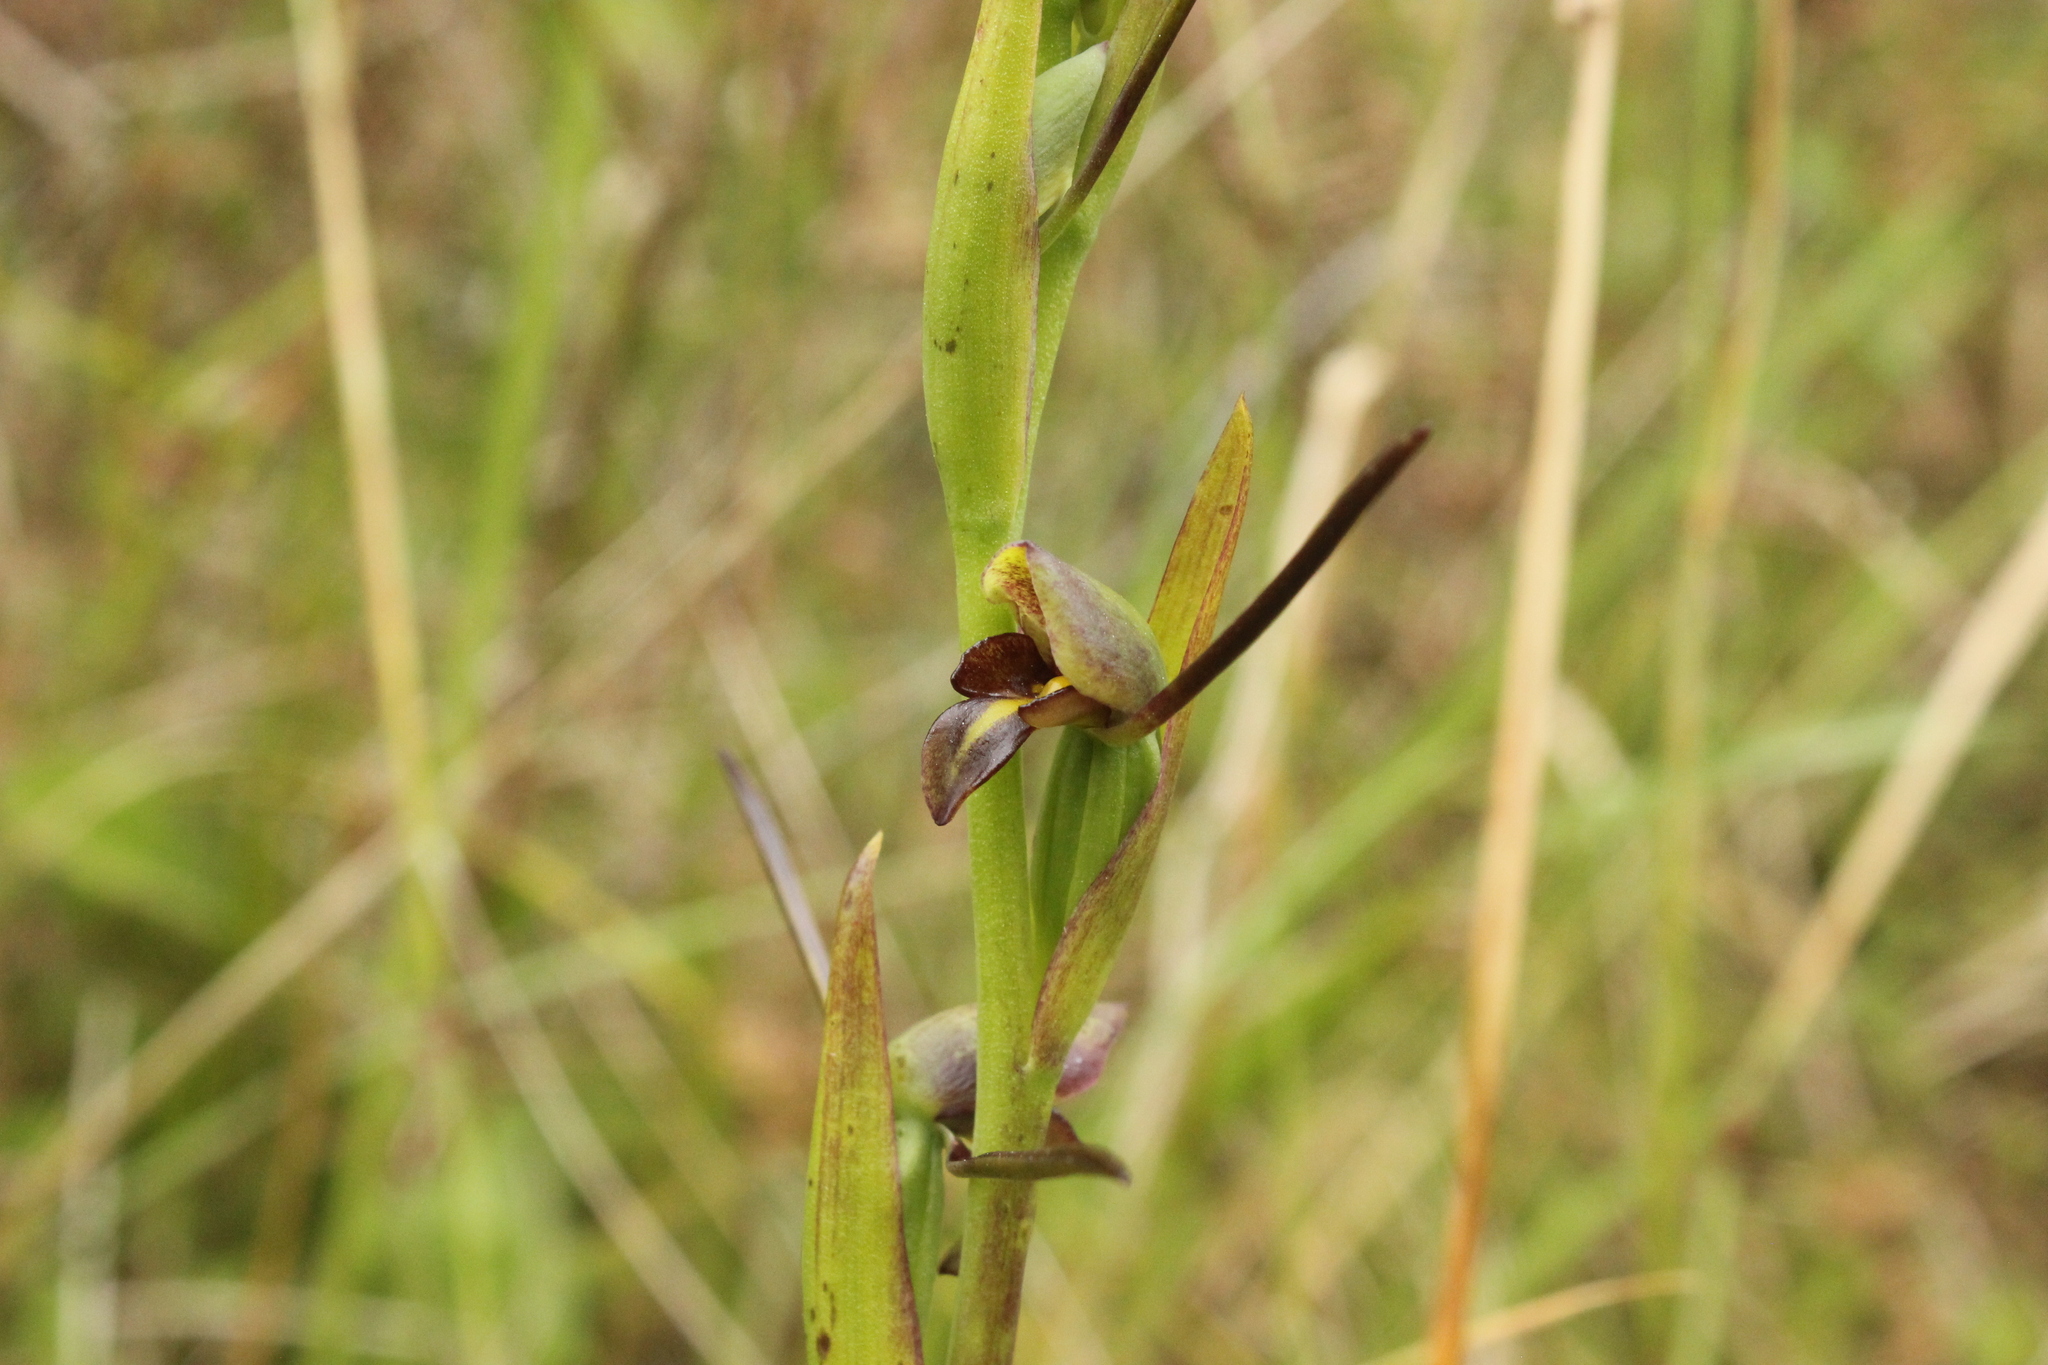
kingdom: Plantae
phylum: Tracheophyta
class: Liliopsida
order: Asparagales
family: Orchidaceae
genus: Orthoceras
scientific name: Orthoceras novae-zeelandiae
